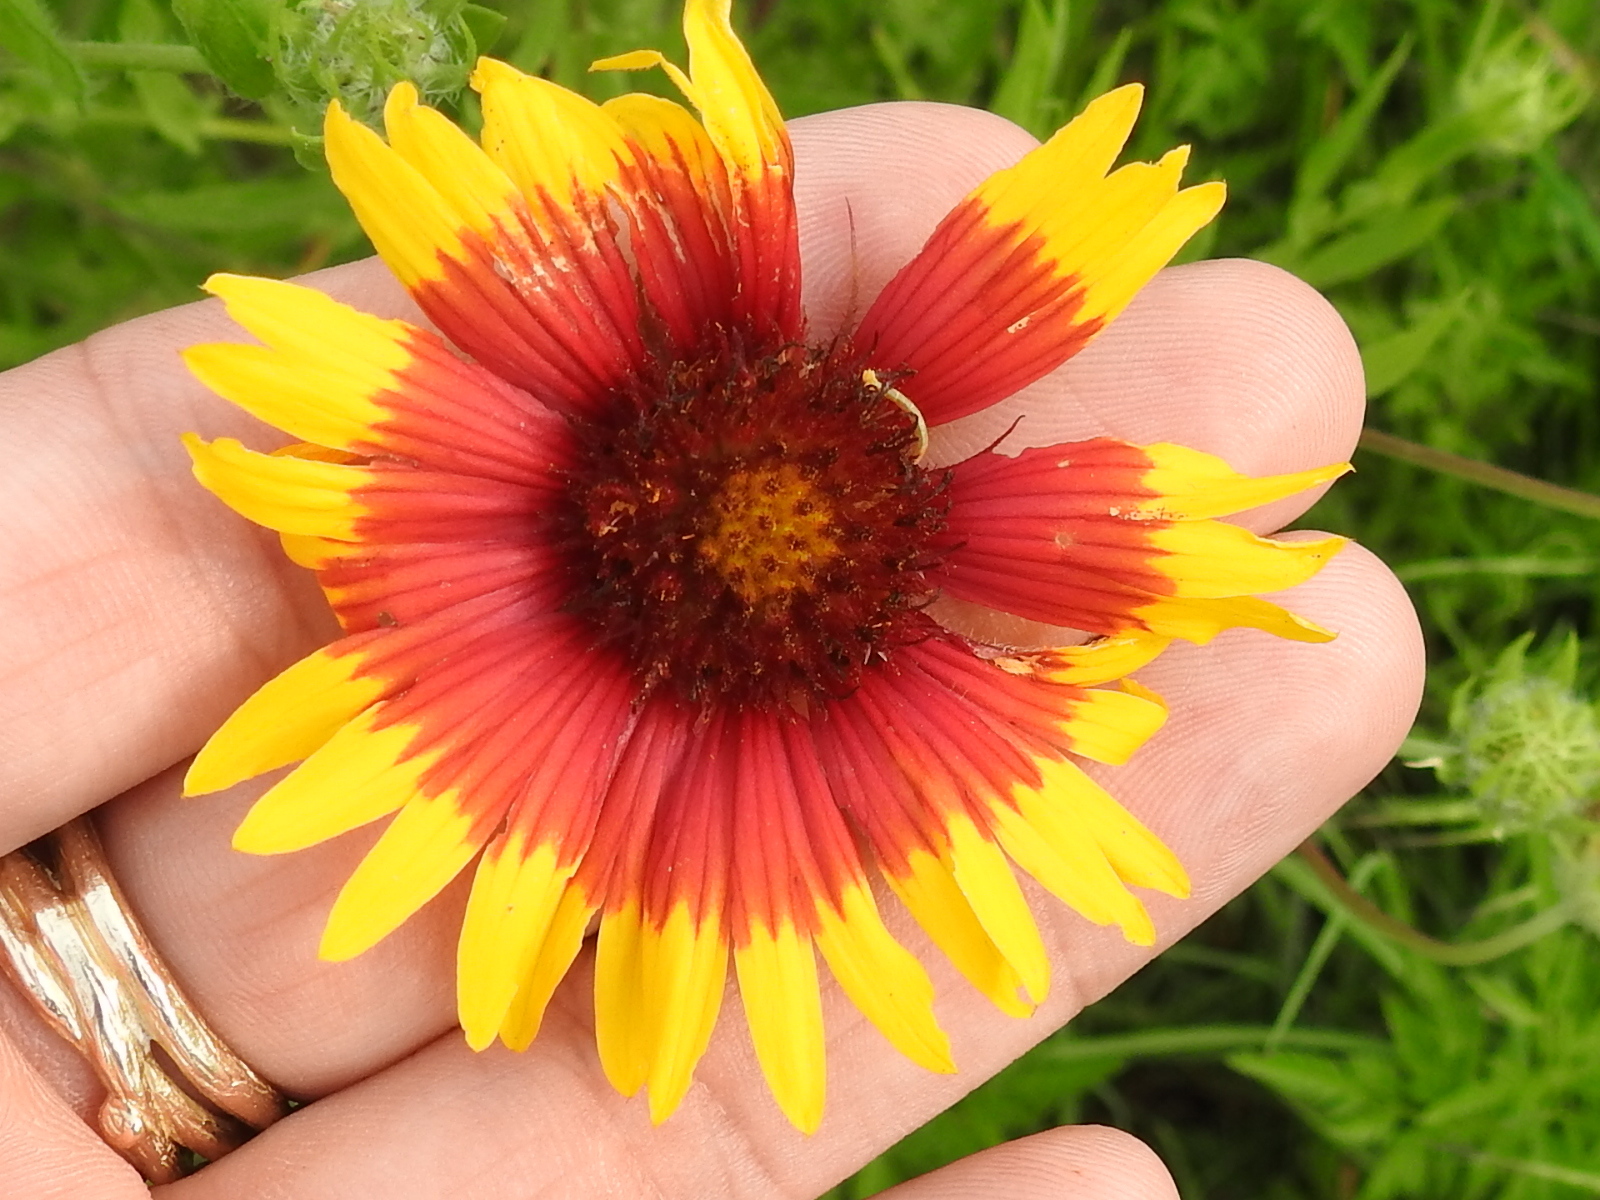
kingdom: Plantae
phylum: Tracheophyta
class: Magnoliopsida
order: Asterales
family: Asteraceae
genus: Gaillardia
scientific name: Gaillardia pulchella
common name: Firewheel
